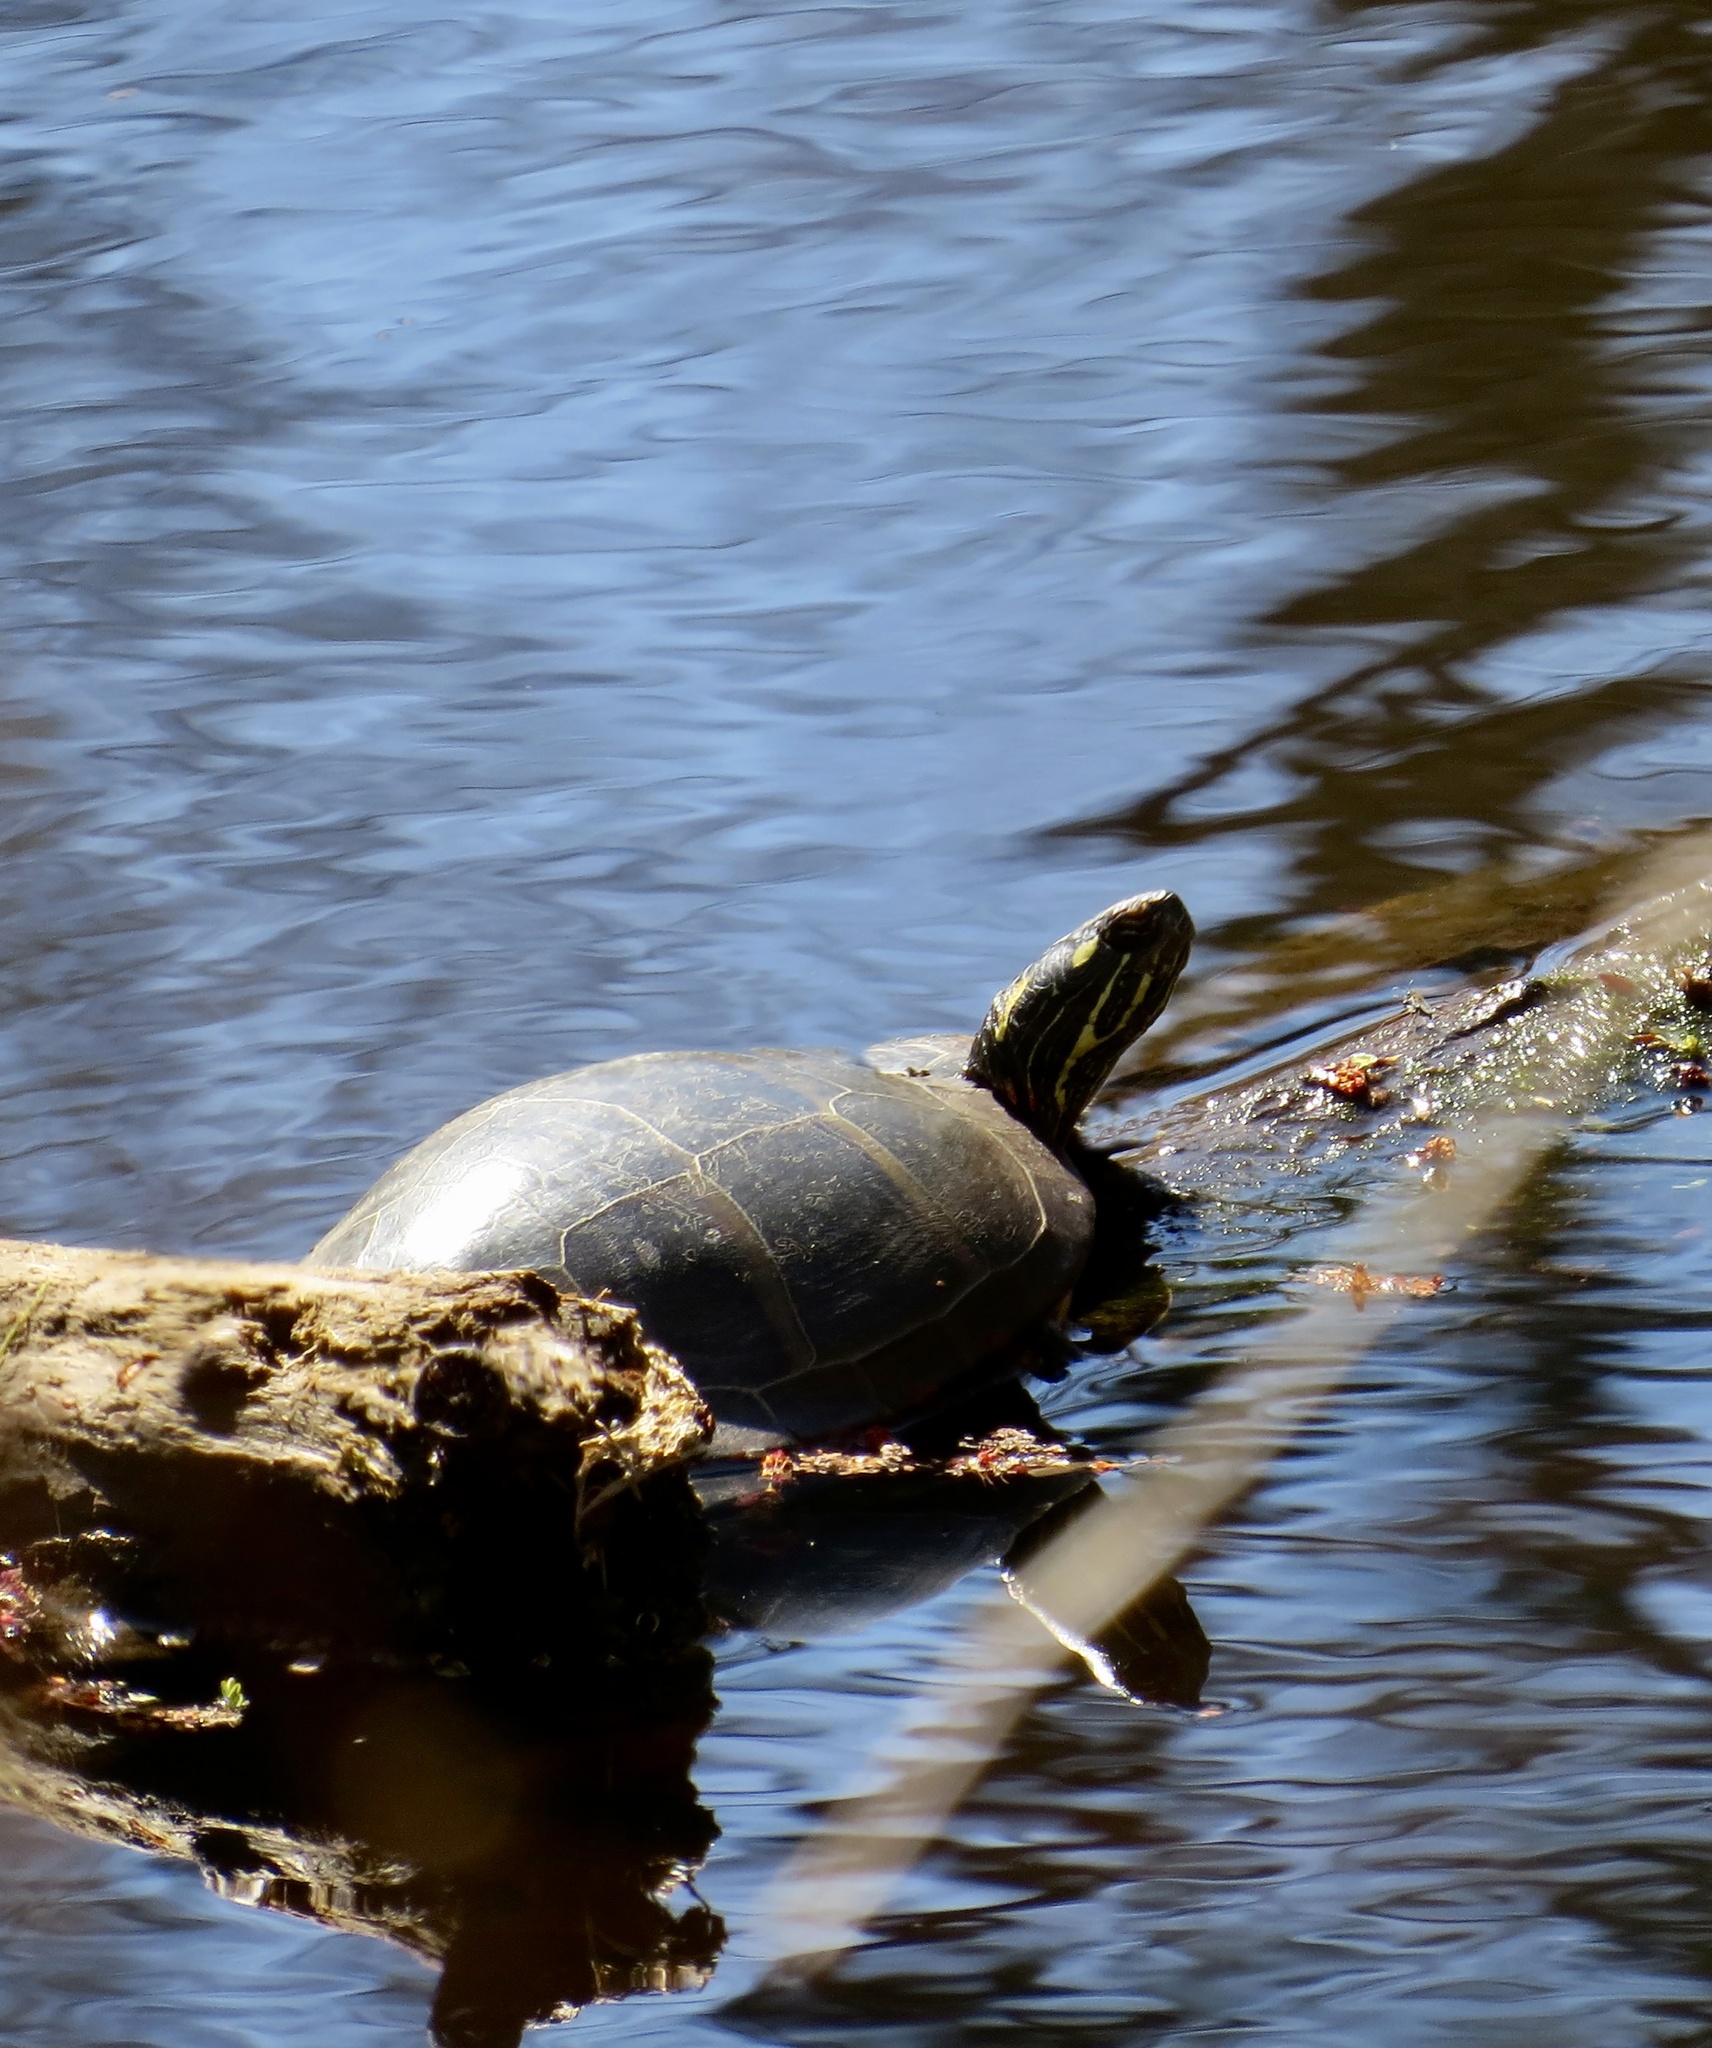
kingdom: Animalia
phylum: Chordata
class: Testudines
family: Emydidae
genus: Chrysemys
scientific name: Chrysemys picta
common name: Painted turtle
